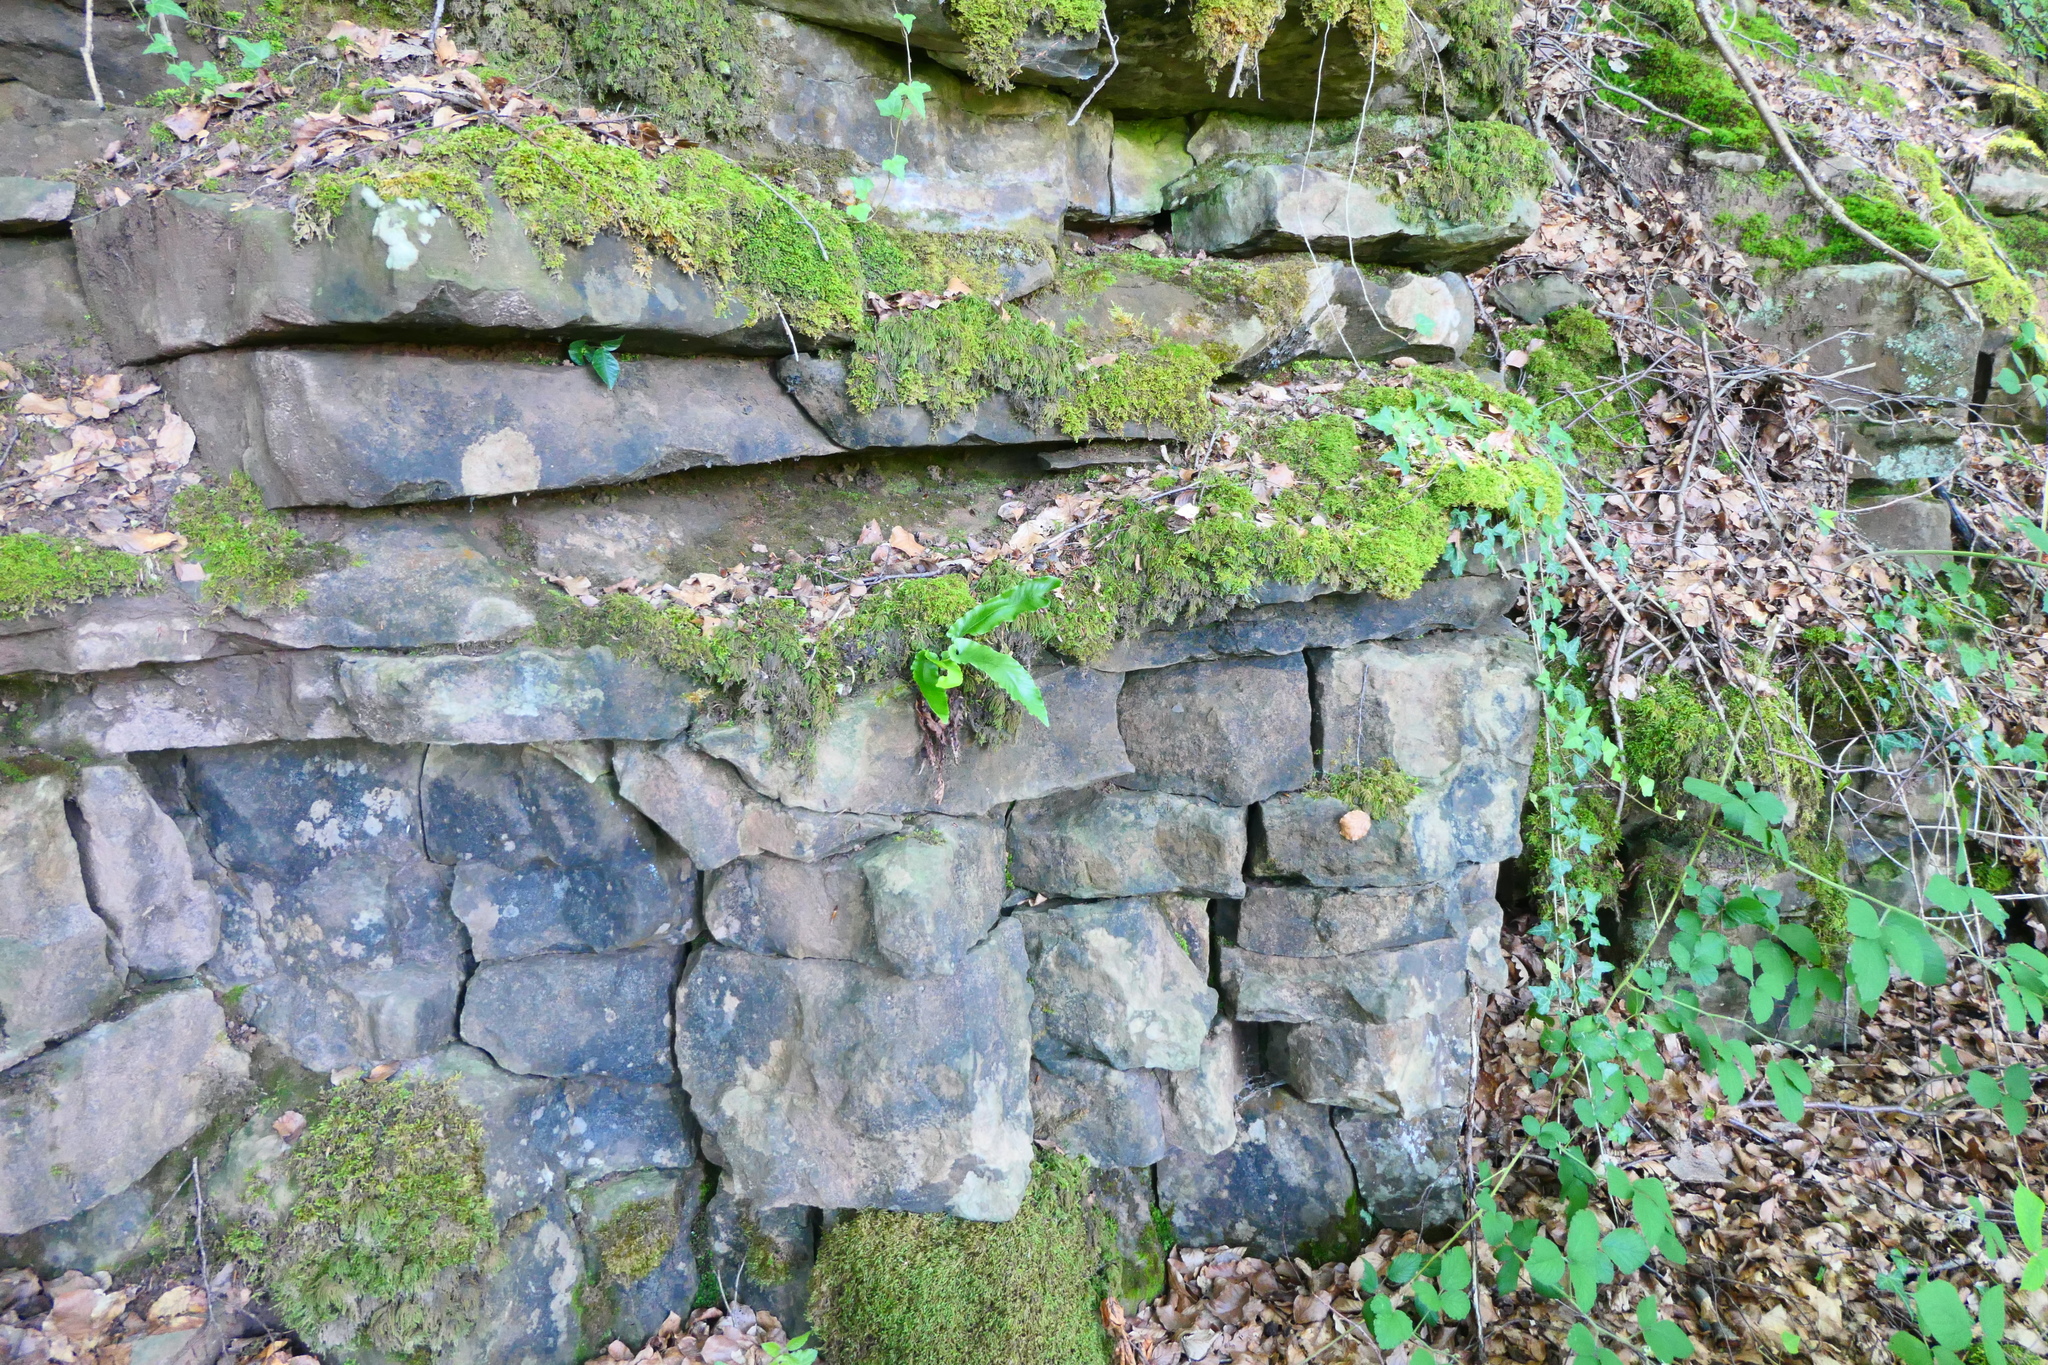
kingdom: Plantae
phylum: Tracheophyta
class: Polypodiopsida
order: Polypodiales
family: Aspleniaceae
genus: Asplenium
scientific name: Asplenium scolopendrium
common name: Hart's-tongue fern
